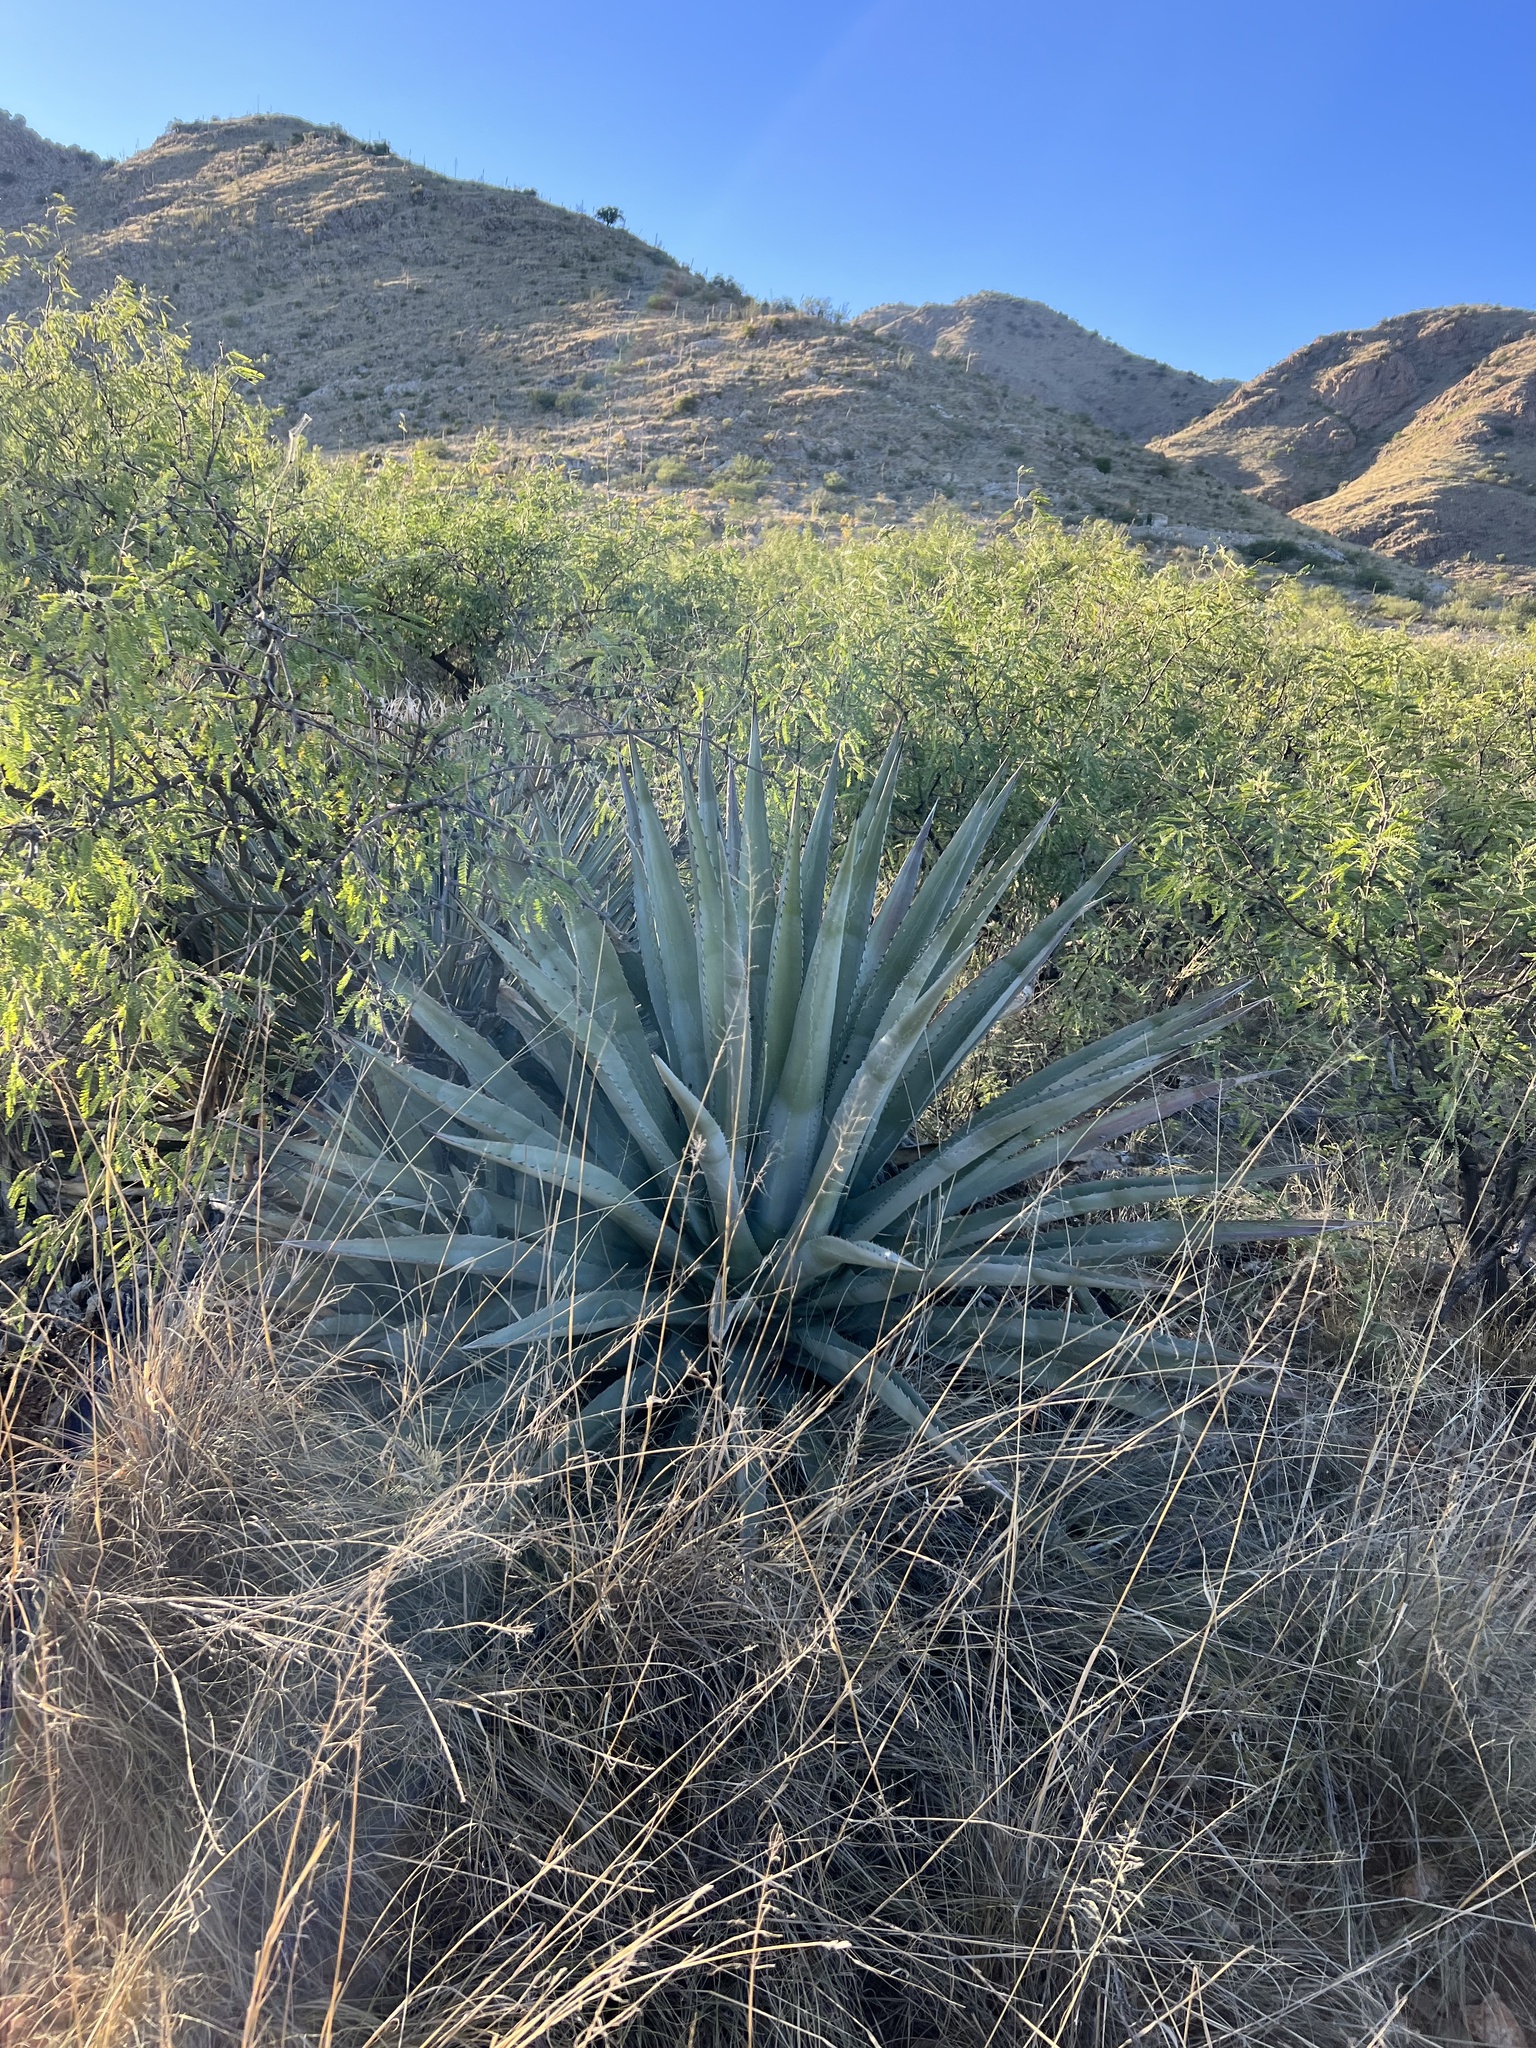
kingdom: Plantae
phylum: Tracheophyta
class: Liliopsida
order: Asparagales
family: Asparagaceae
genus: Agave
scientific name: Agave palmeri
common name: Palmer agave
